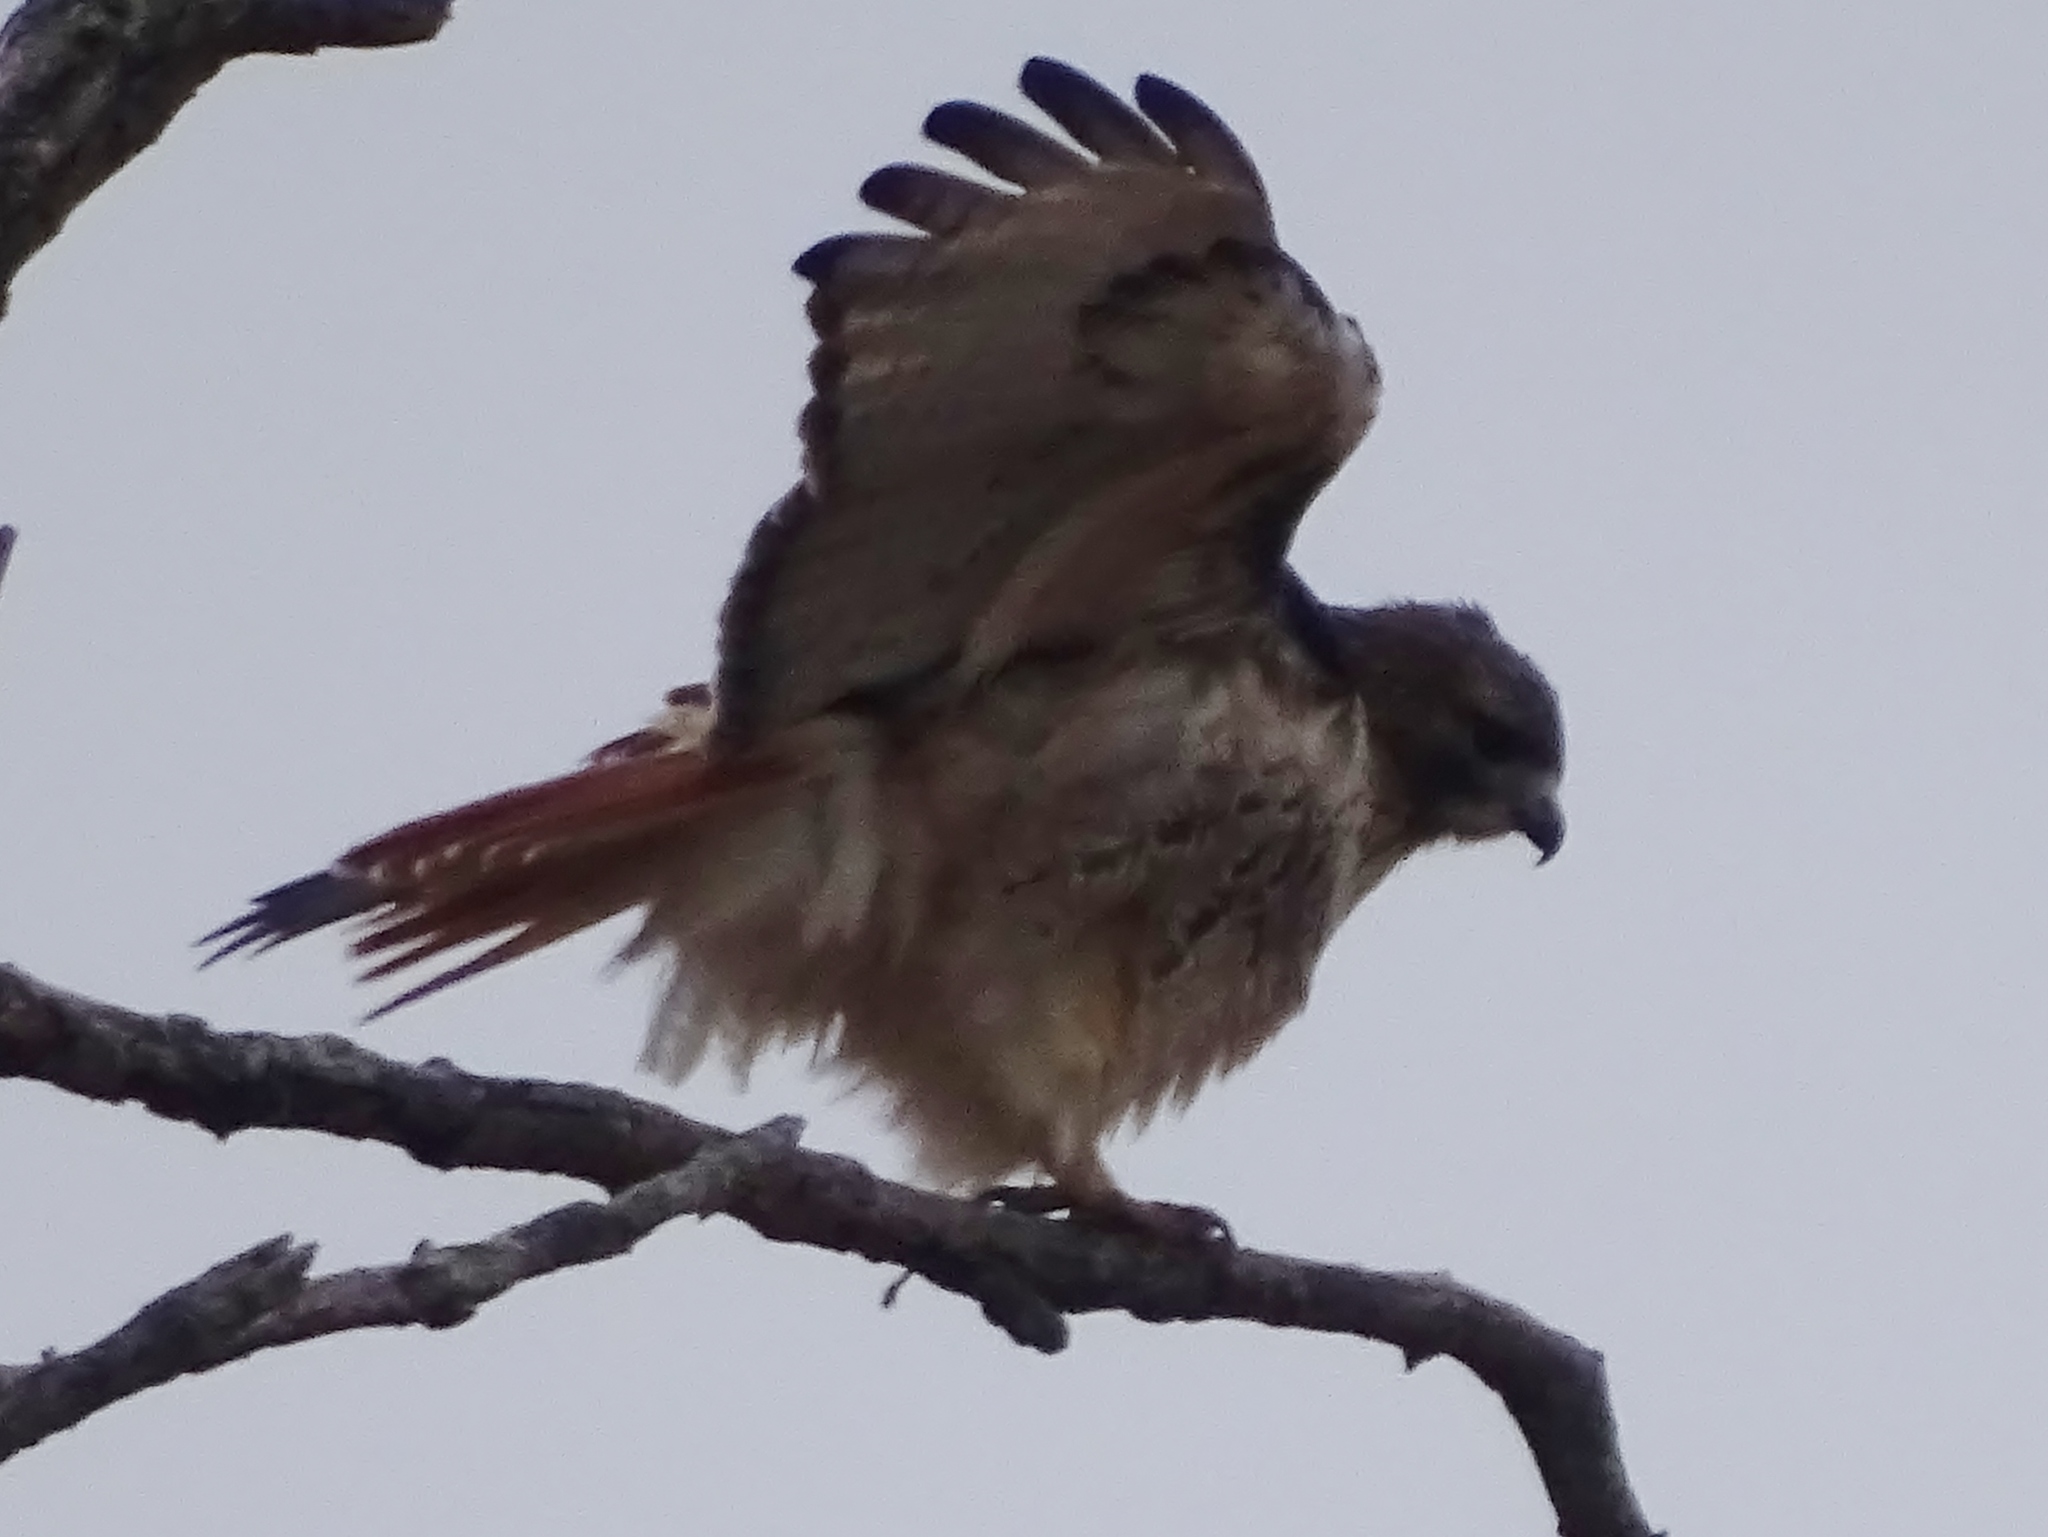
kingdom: Animalia
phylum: Chordata
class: Aves
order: Accipitriformes
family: Accipitridae
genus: Buteo
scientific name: Buteo jamaicensis
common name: Red-tailed hawk
